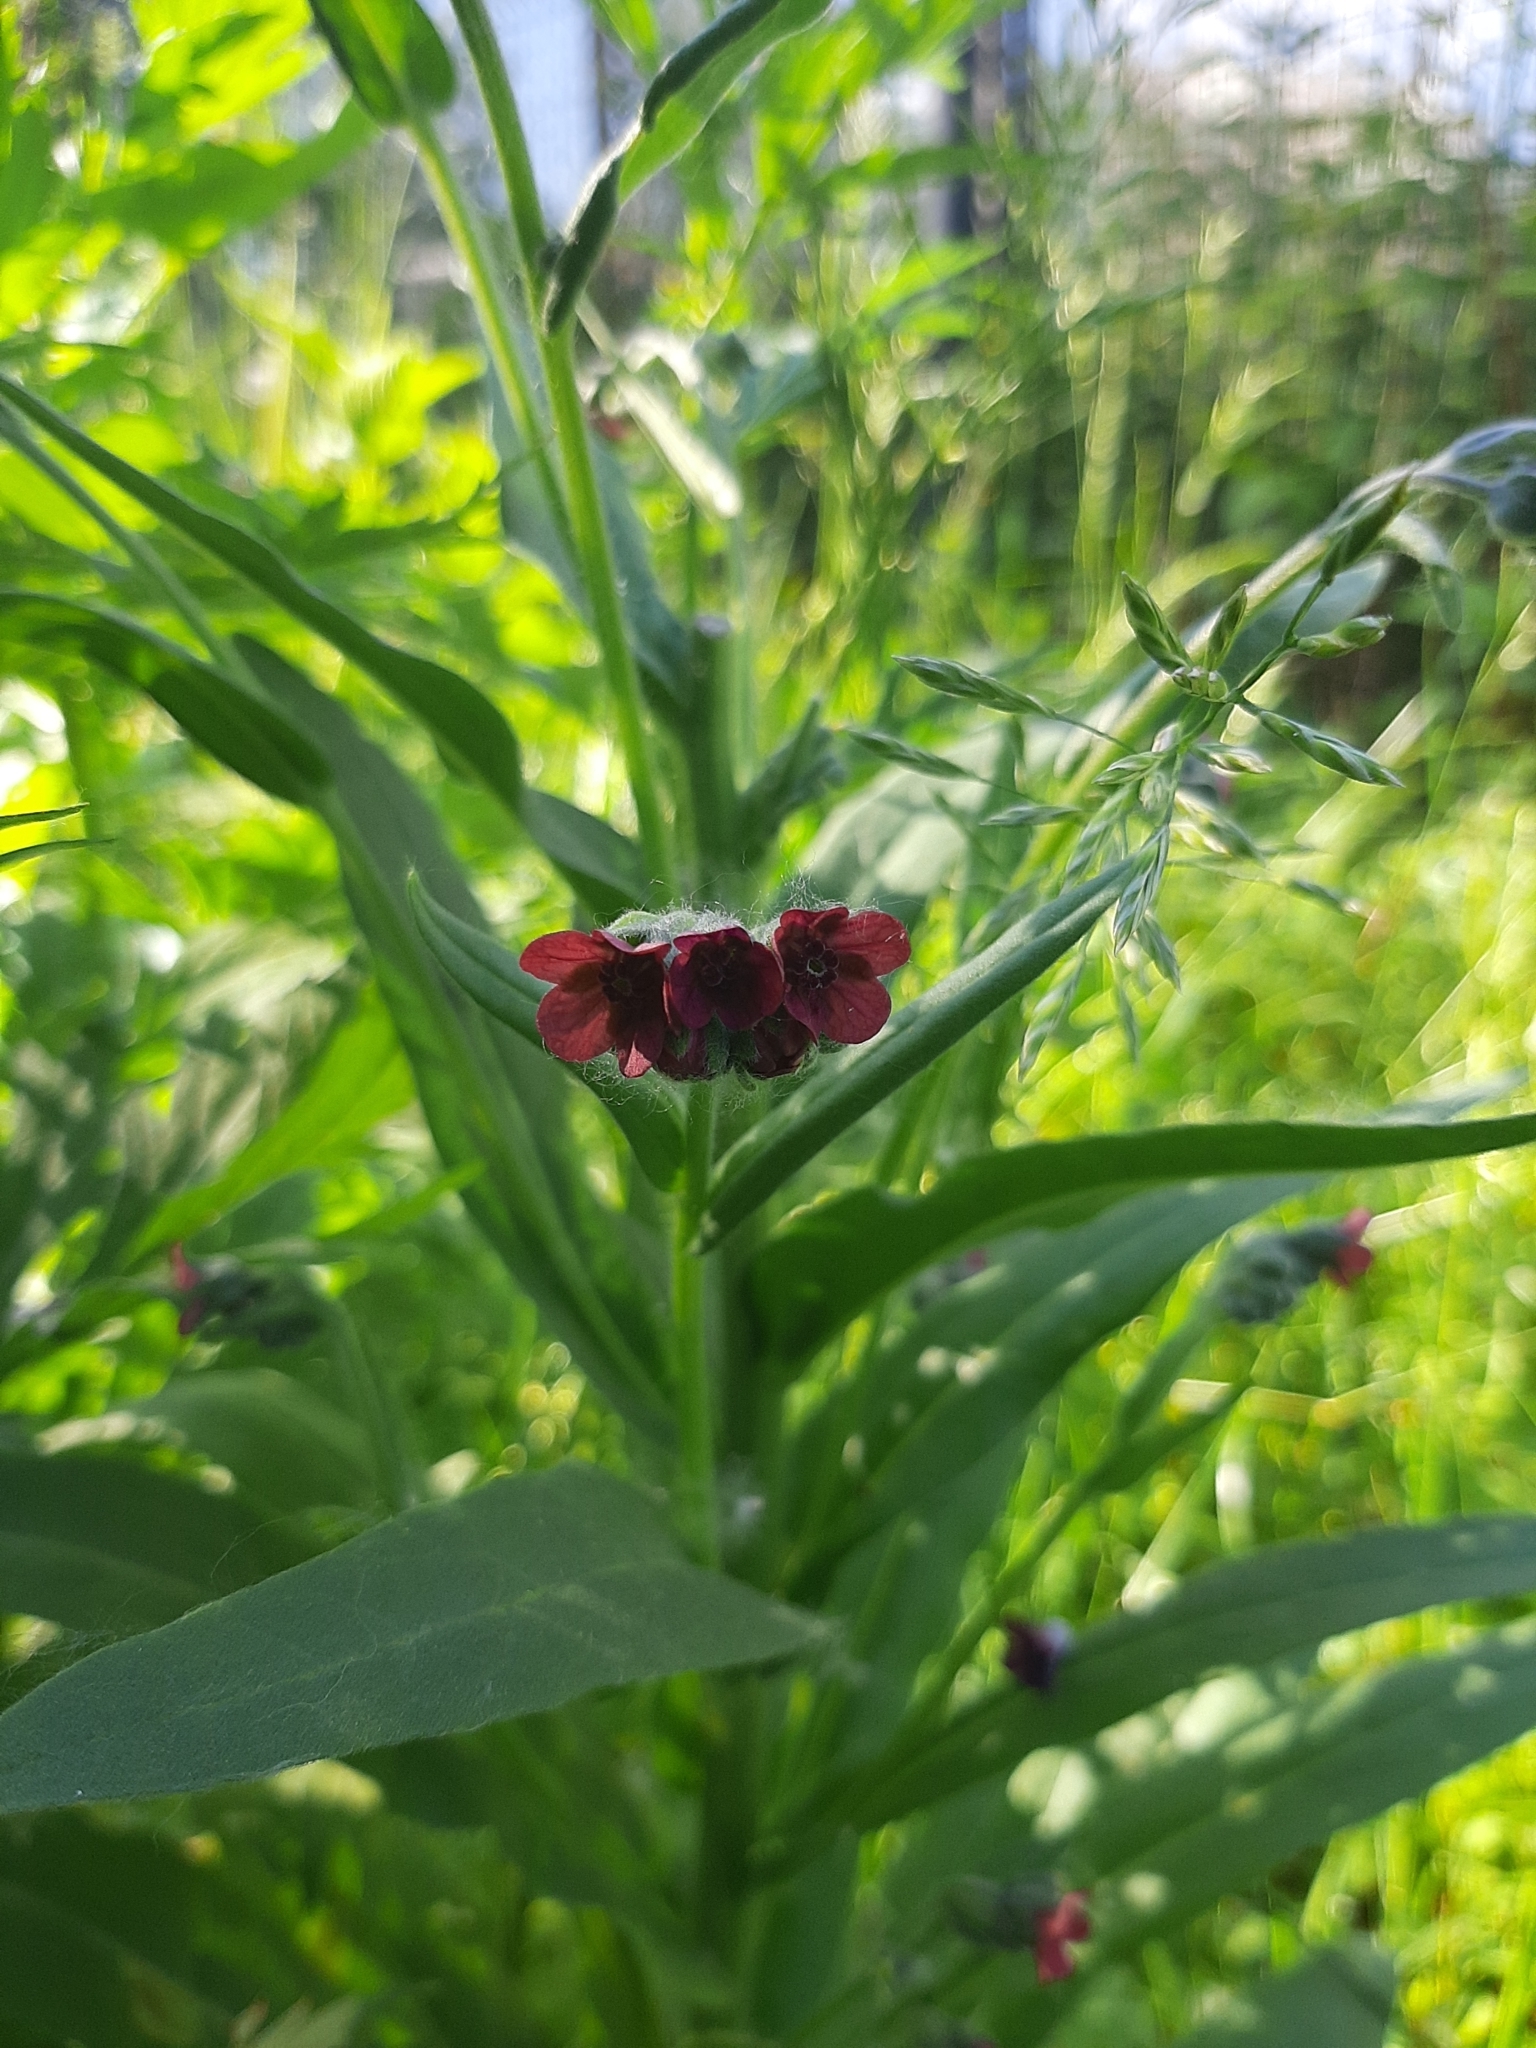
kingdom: Plantae
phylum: Tracheophyta
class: Magnoliopsida
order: Boraginales
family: Boraginaceae
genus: Cynoglossum
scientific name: Cynoglossum officinale
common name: Hound's-tongue
